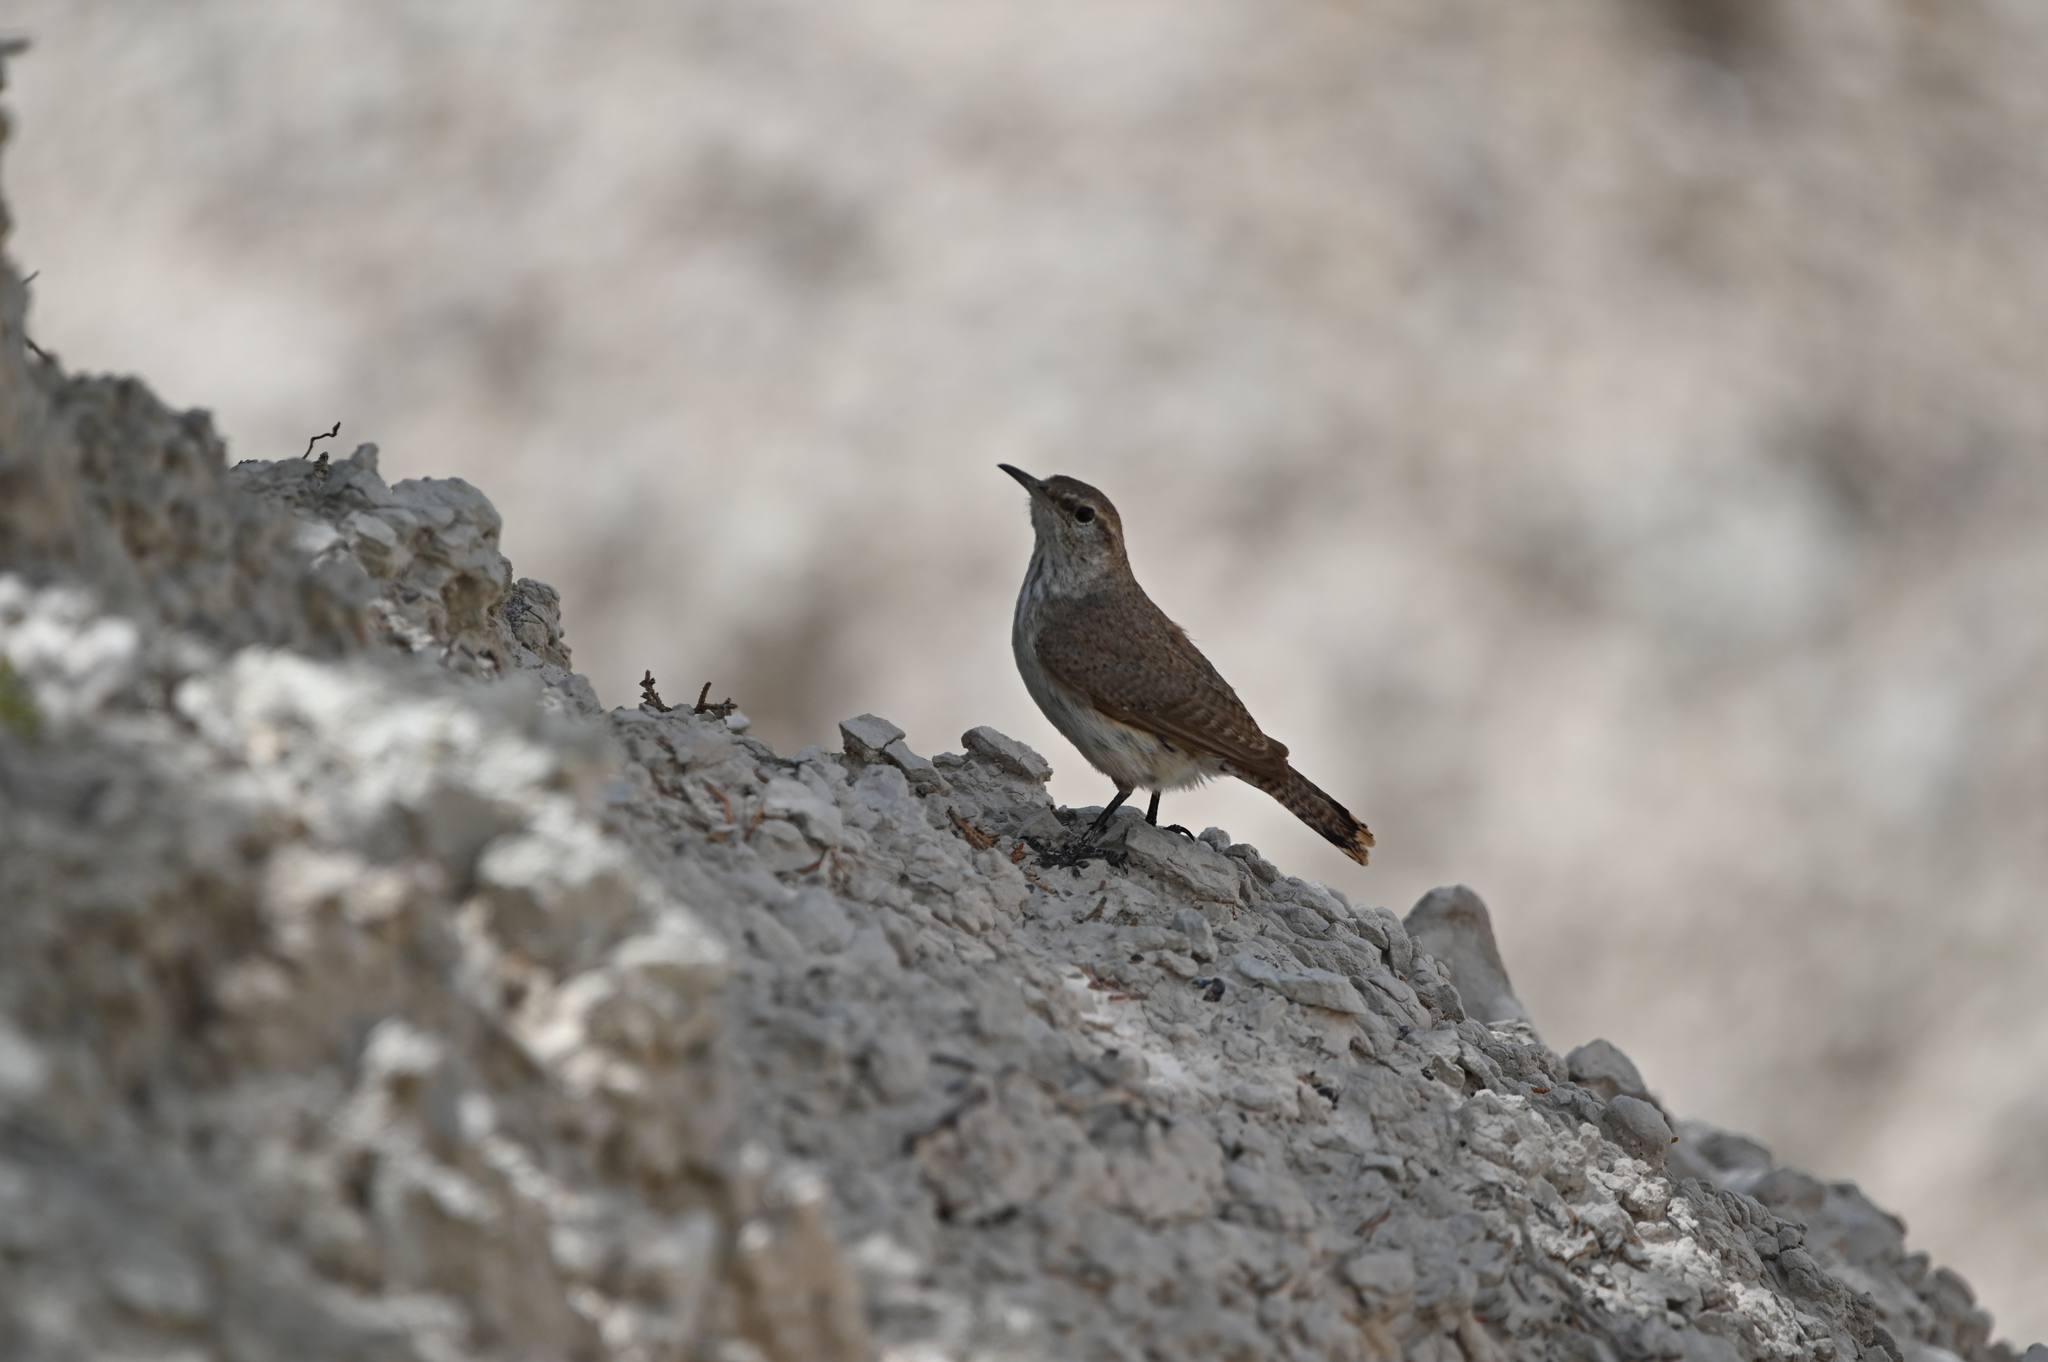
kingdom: Animalia
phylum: Chordata
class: Aves
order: Passeriformes
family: Troglodytidae
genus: Salpinctes
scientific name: Salpinctes obsoletus
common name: Rock wren
